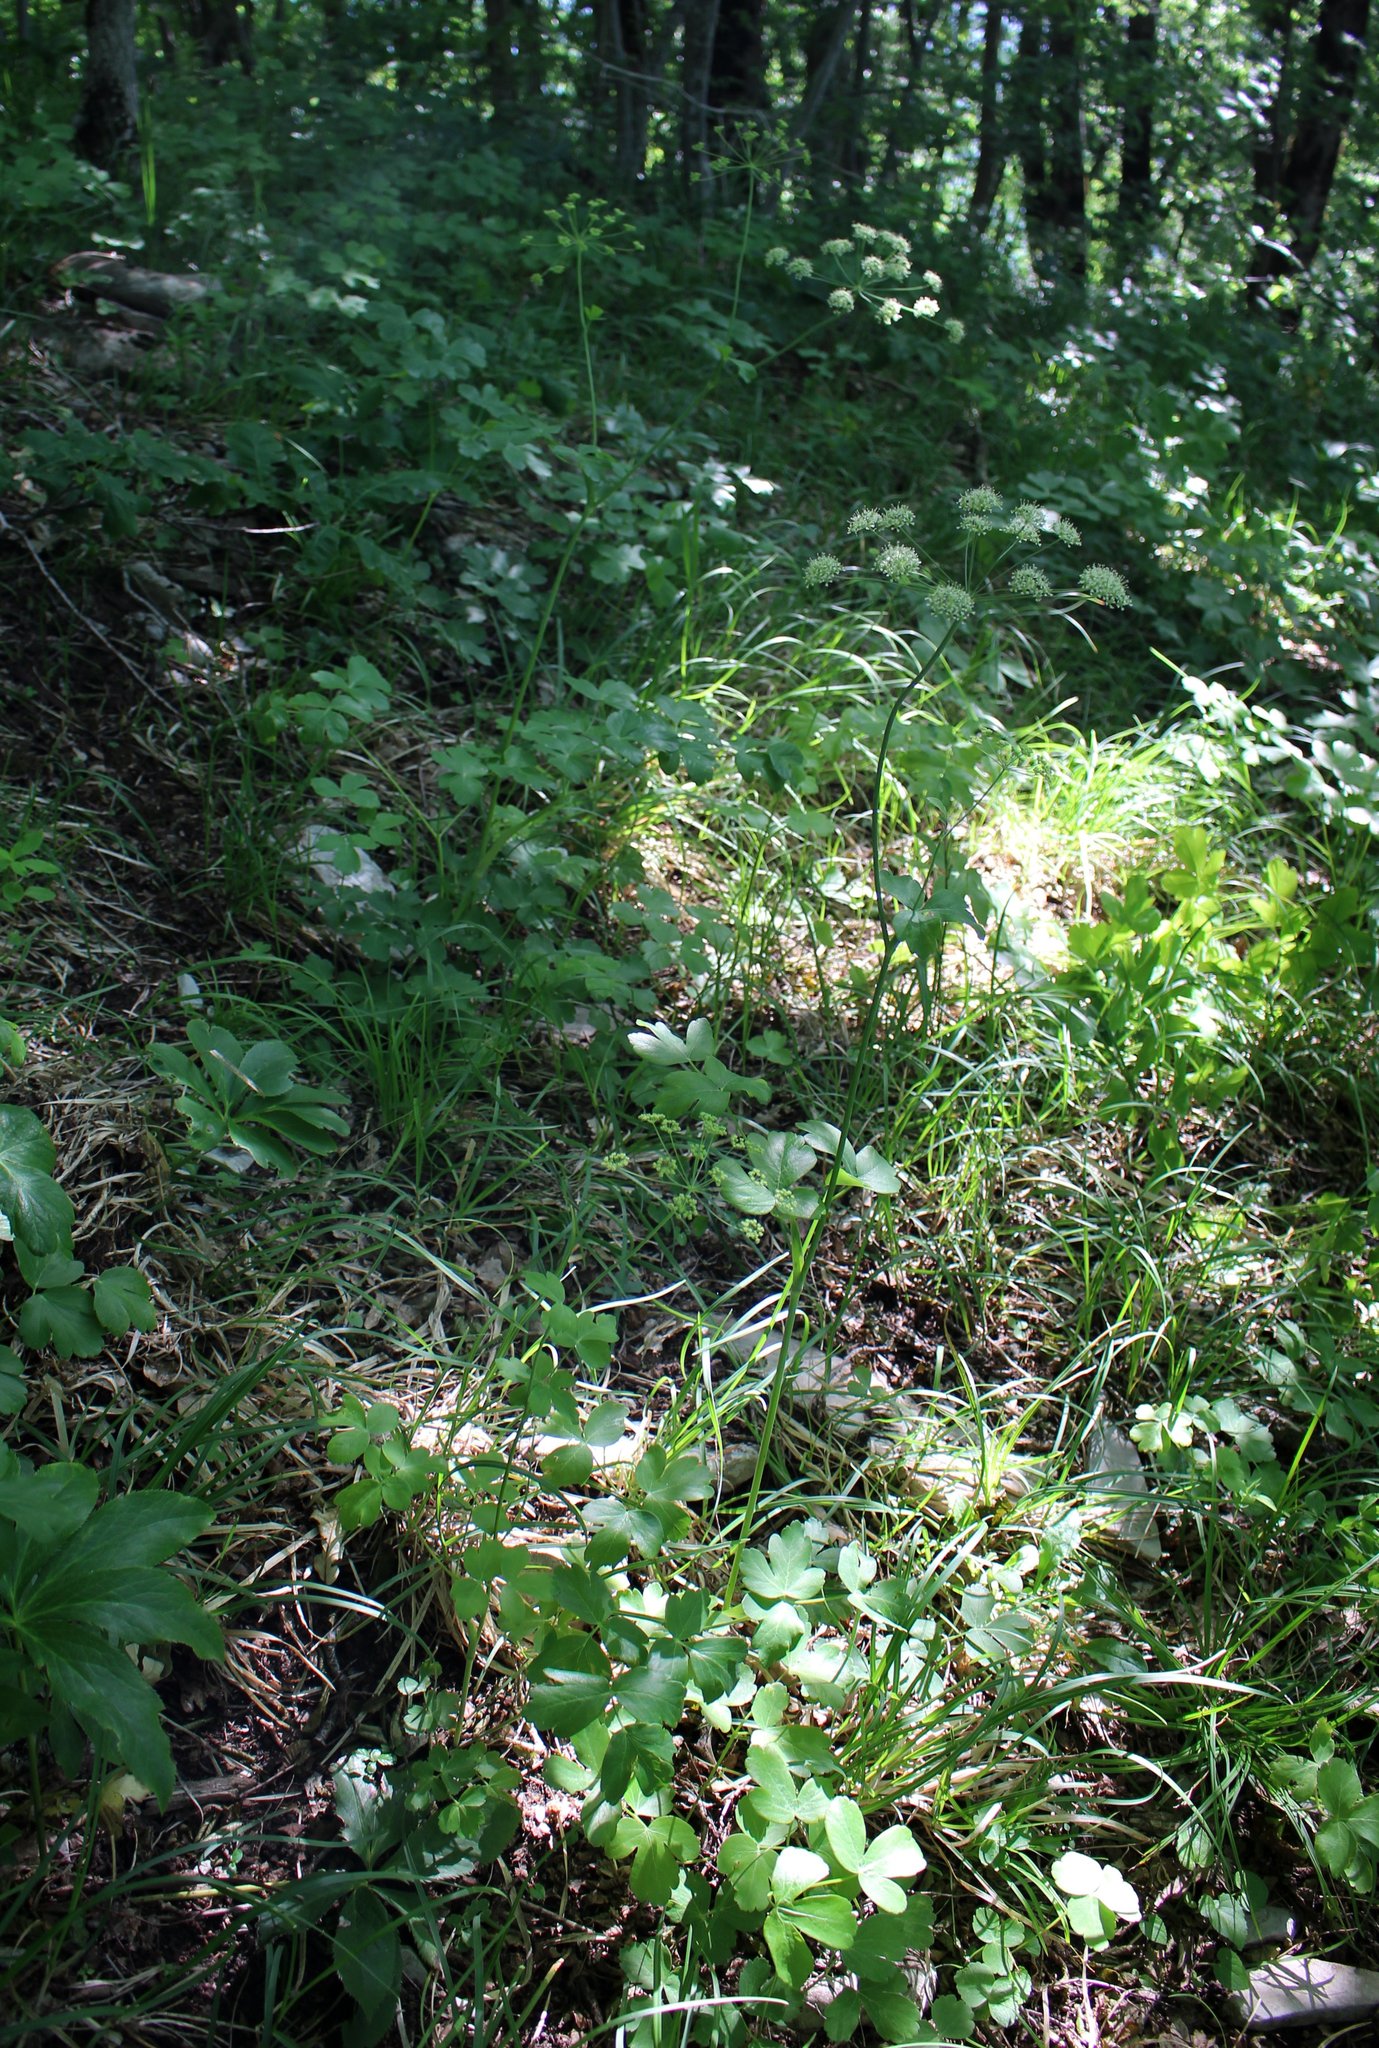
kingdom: Plantae
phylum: Tracheophyta
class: Magnoliopsida
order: Apiales
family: Apiaceae
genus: Laser
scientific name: Laser trilobum
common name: Laser
